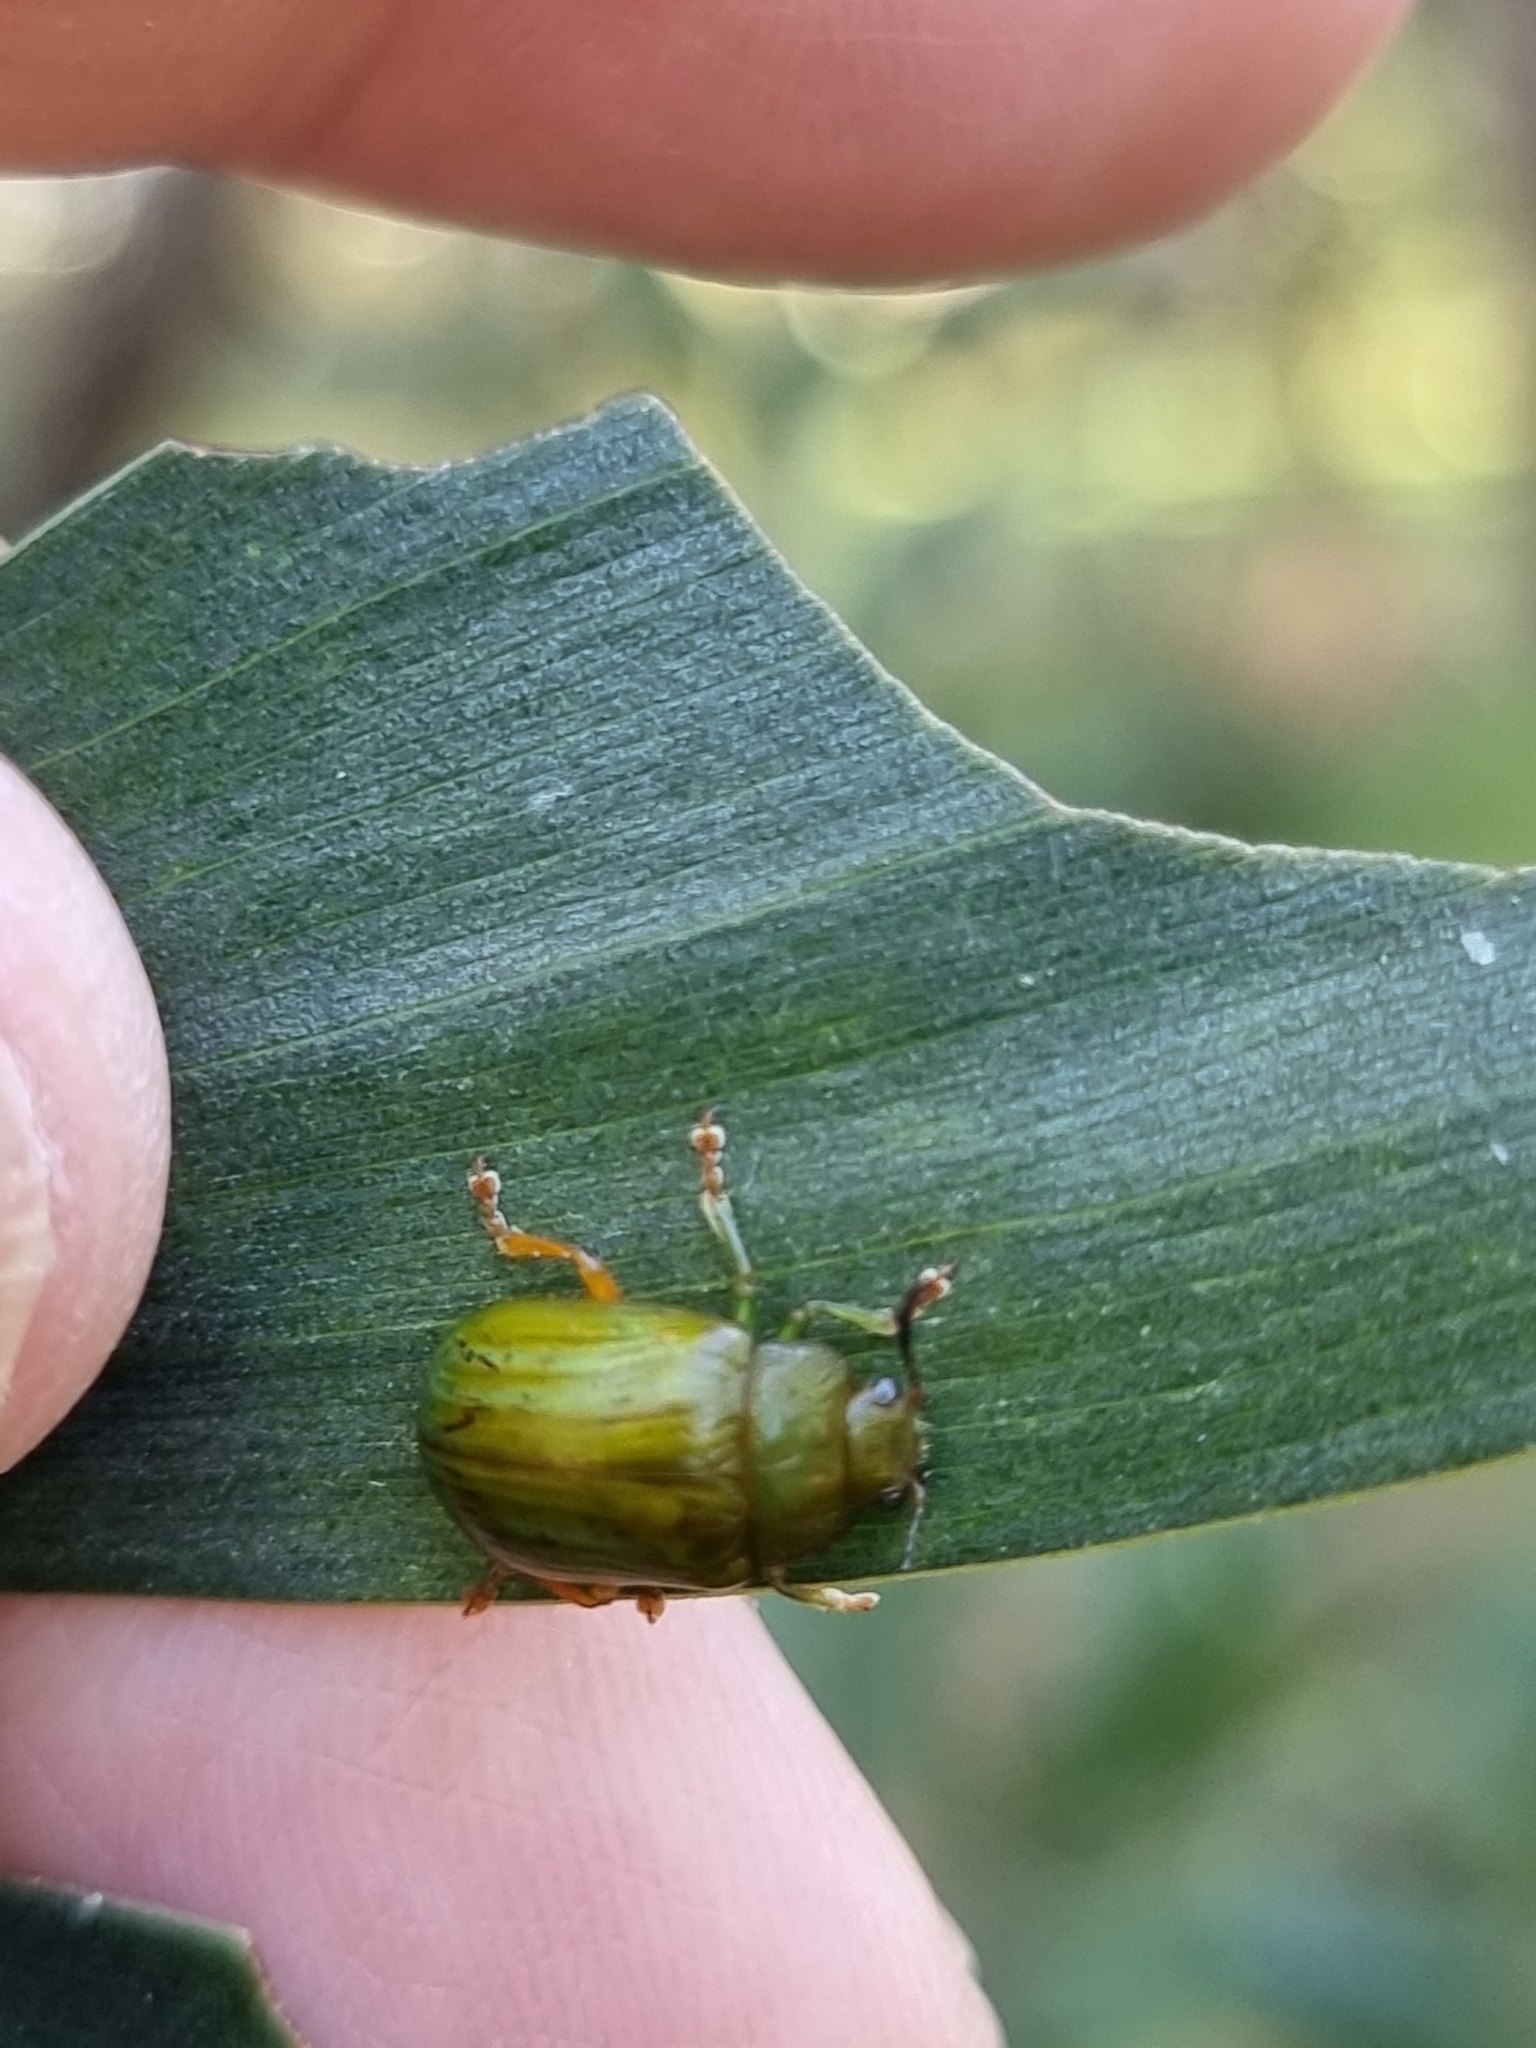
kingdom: Animalia
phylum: Arthropoda
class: Insecta
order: Coleoptera
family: Chrysomelidae
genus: Calomela
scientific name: Calomela
